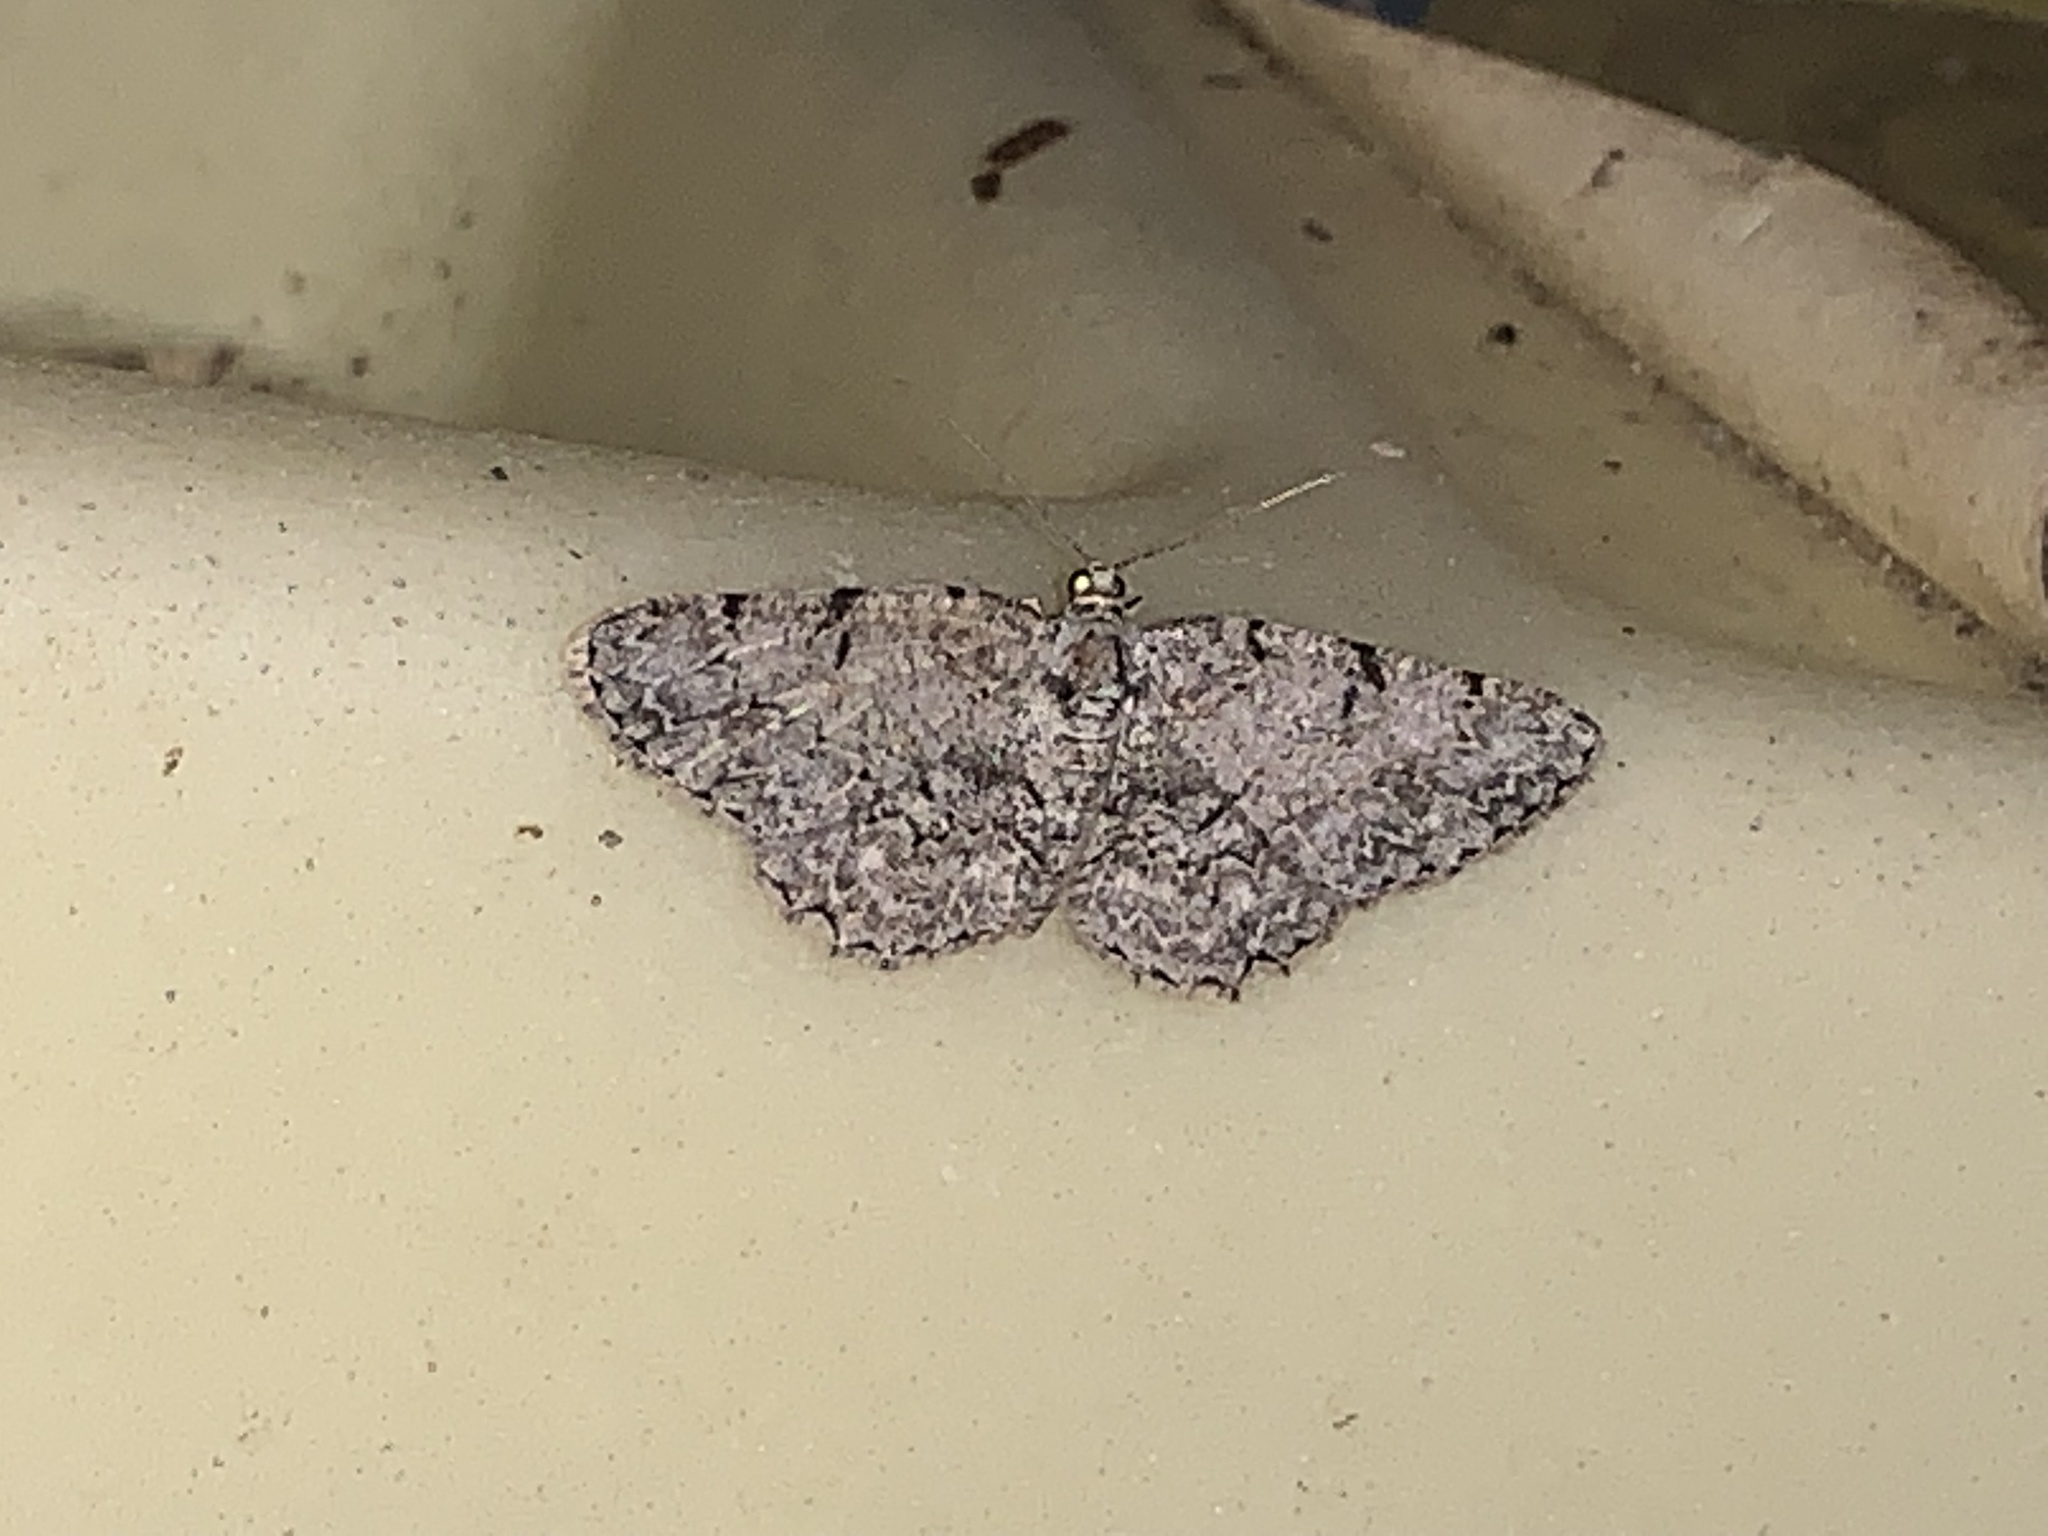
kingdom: Animalia
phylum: Arthropoda
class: Insecta
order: Lepidoptera
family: Geometridae
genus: Protoboarmia
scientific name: Protoboarmia porcelaria
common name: Porcelain gray
